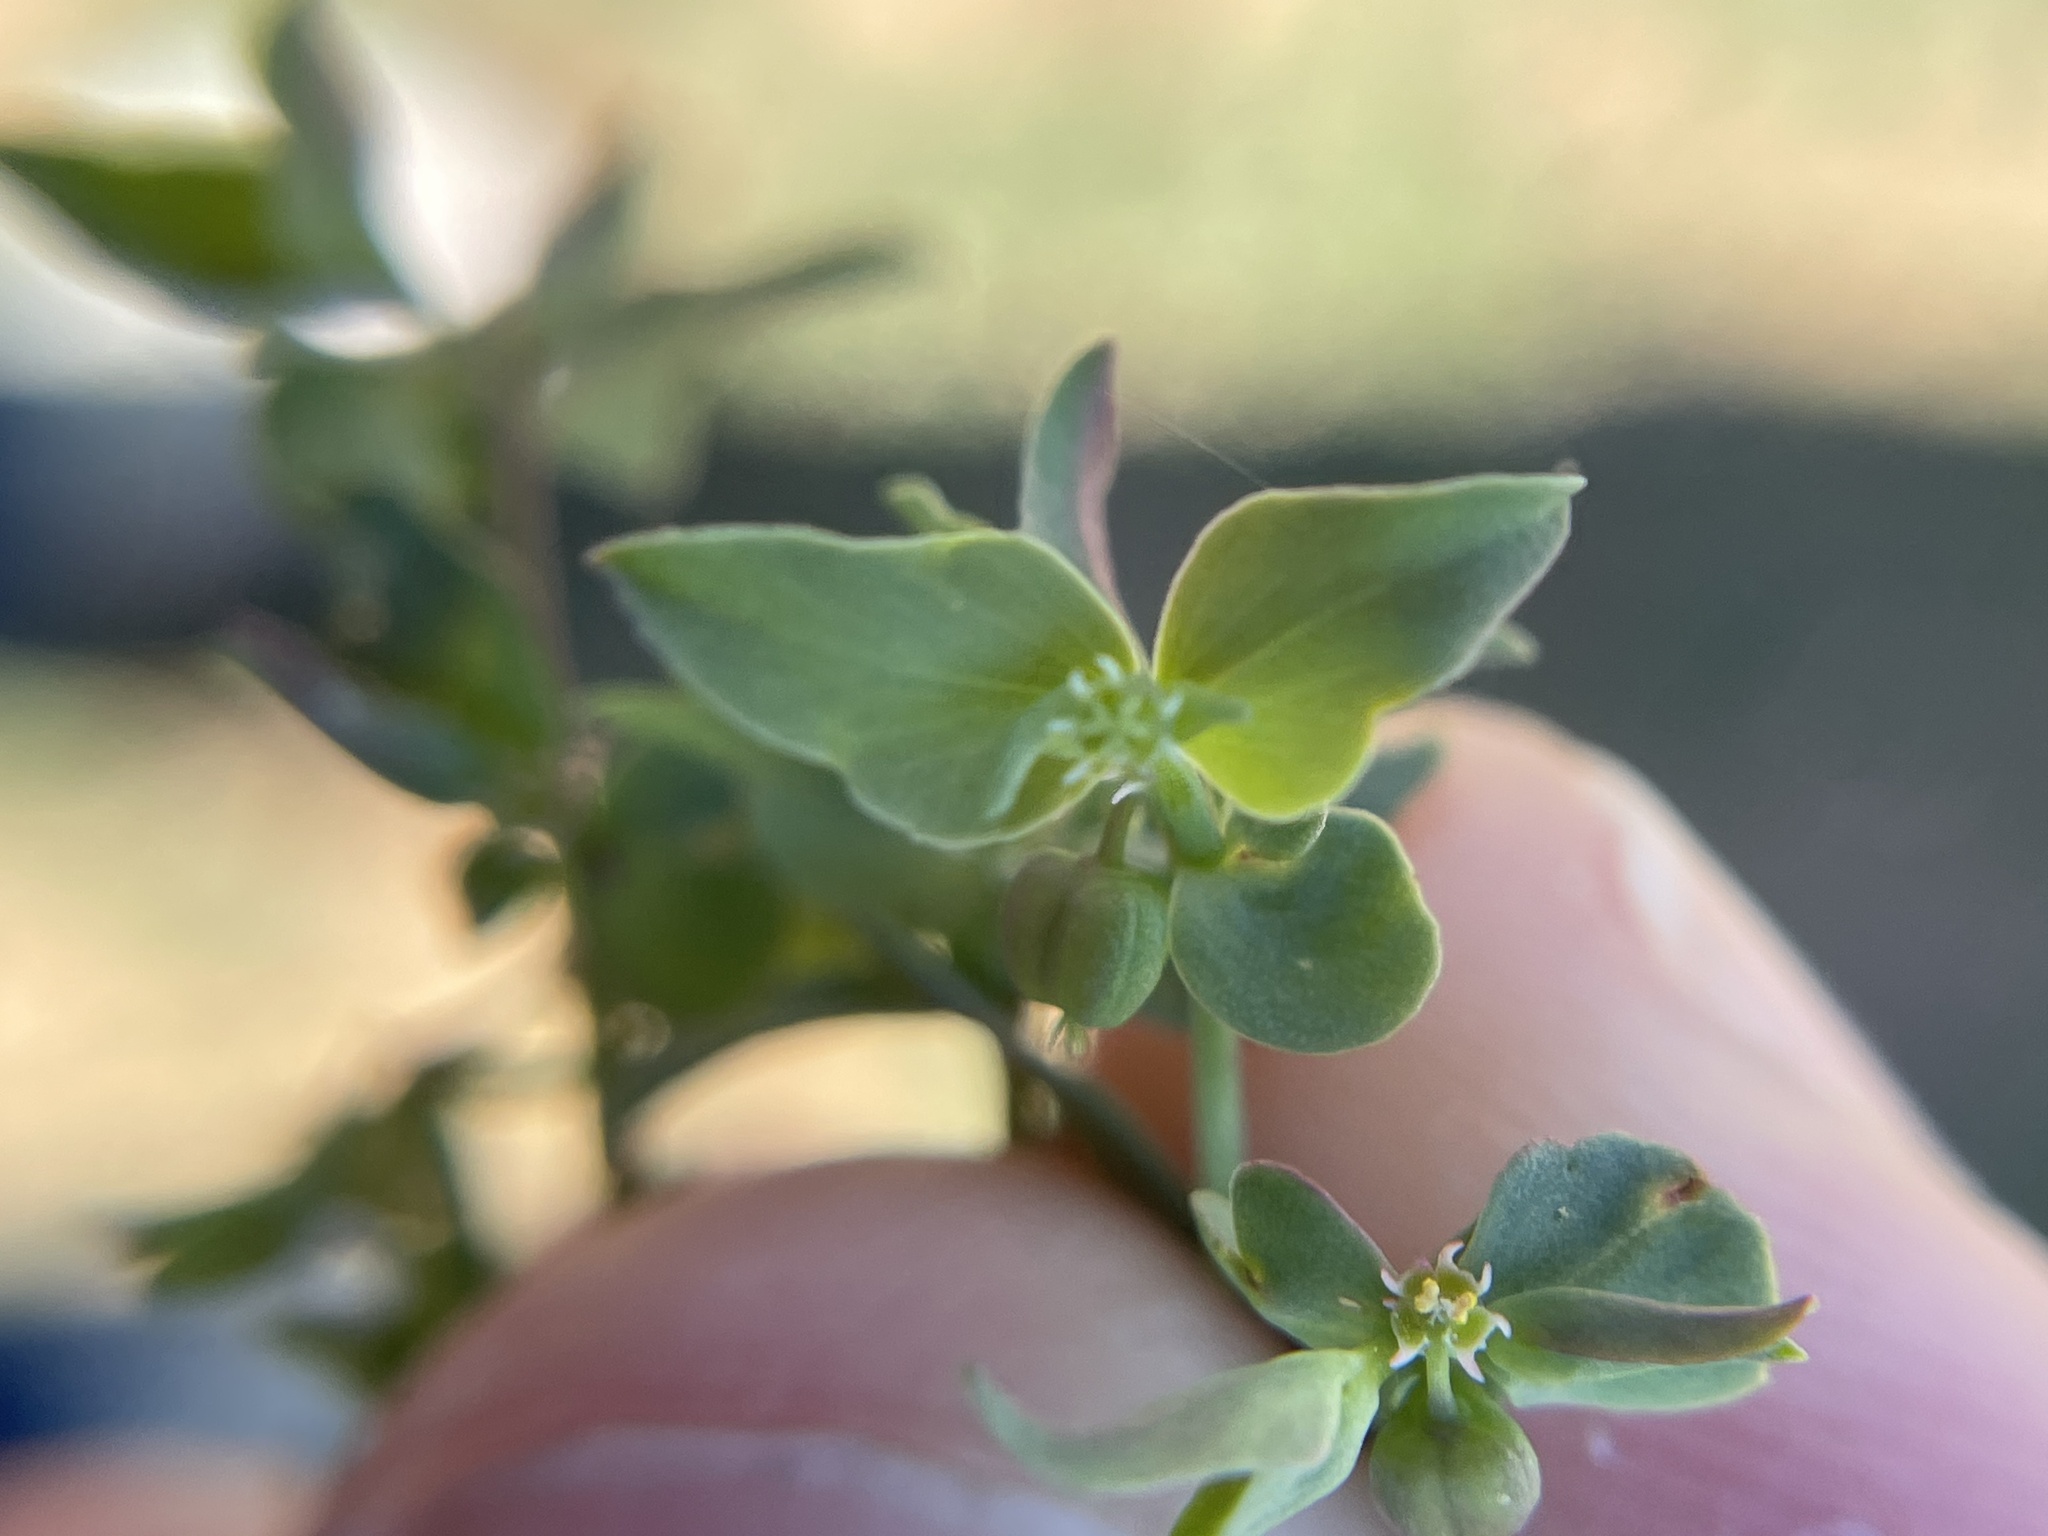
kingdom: Plantae
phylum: Tracheophyta
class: Magnoliopsida
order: Malpighiales
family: Euphorbiaceae
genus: Euphorbia
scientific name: Euphorbia peplidion
